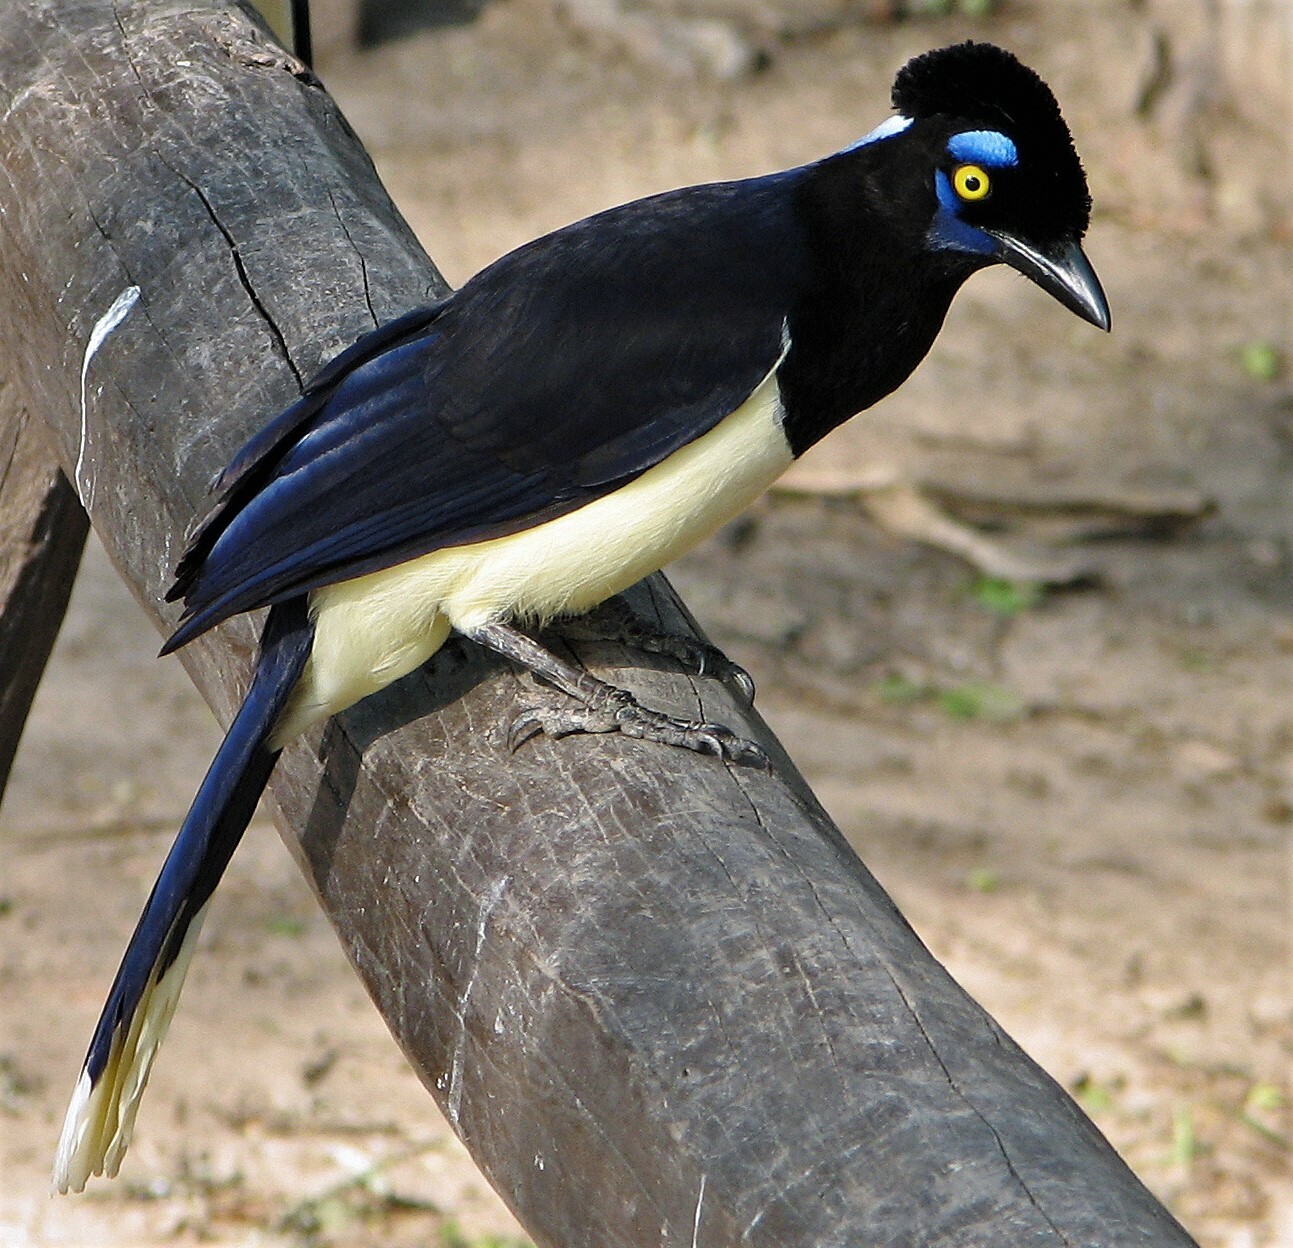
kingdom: Animalia
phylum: Chordata
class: Aves
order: Passeriformes
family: Corvidae
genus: Cyanocorax
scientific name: Cyanocorax chrysops
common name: Plush-crested jay
